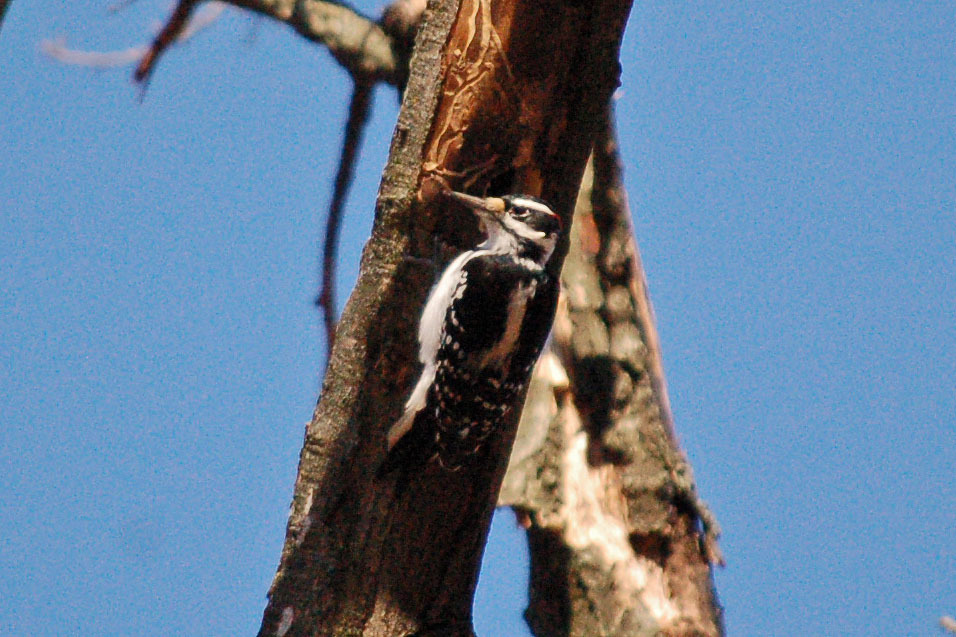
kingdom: Animalia
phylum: Chordata
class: Aves
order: Piciformes
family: Picidae
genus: Leuconotopicus
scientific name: Leuconotopicus villosus
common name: Hairy woodpecker
